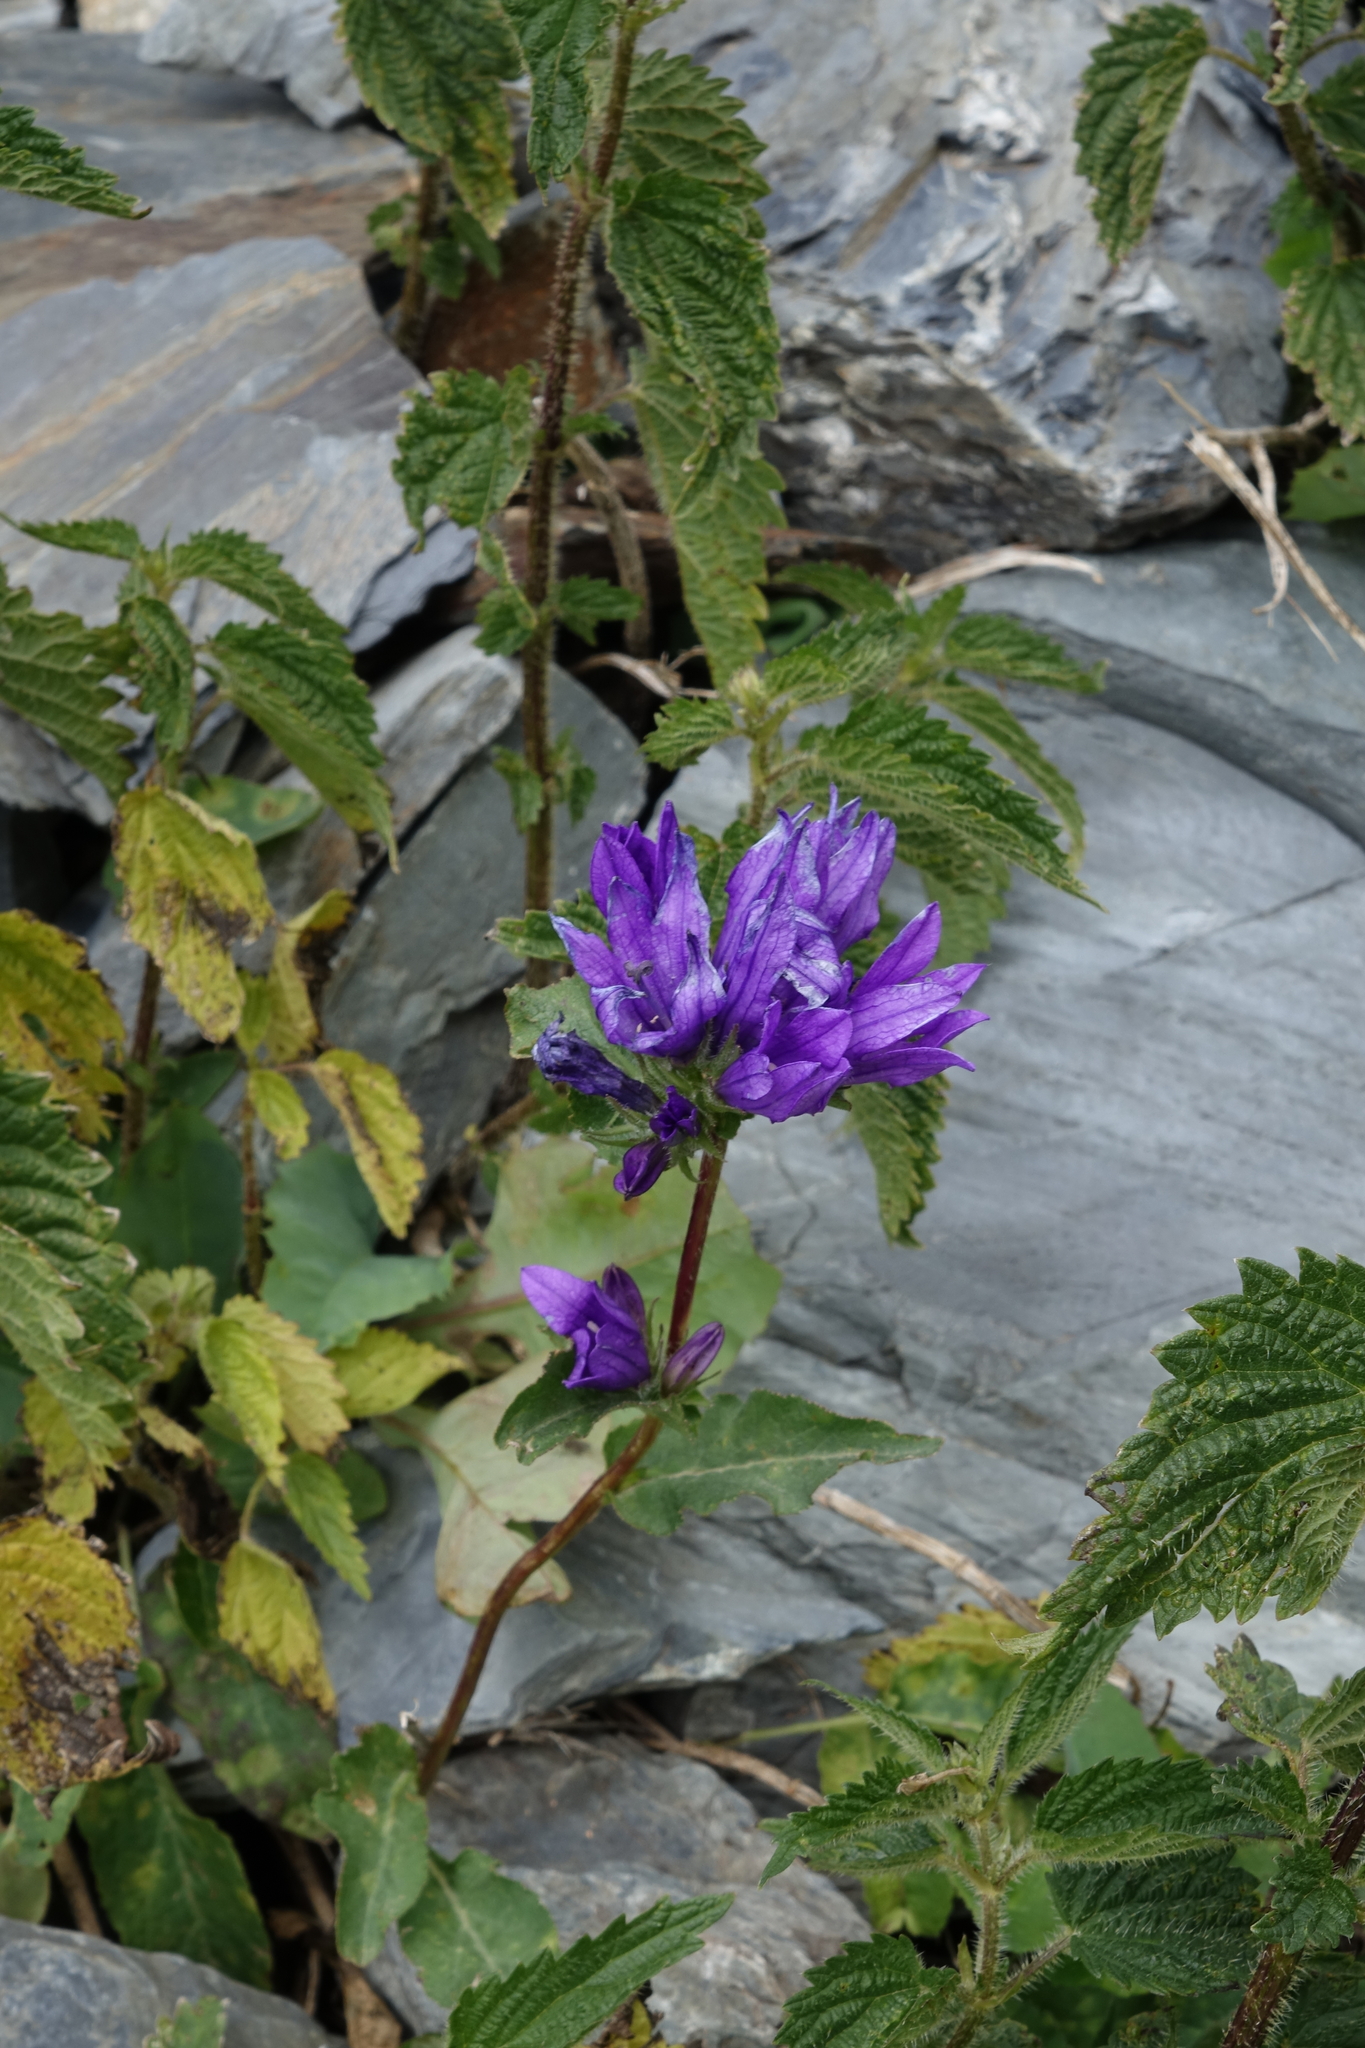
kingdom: Plantae
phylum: Tracheophyta
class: Magnoliopsida
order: Asterales
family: Campanulaceae
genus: Campanula
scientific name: Campanula glomerata
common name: Clustered bellflower
